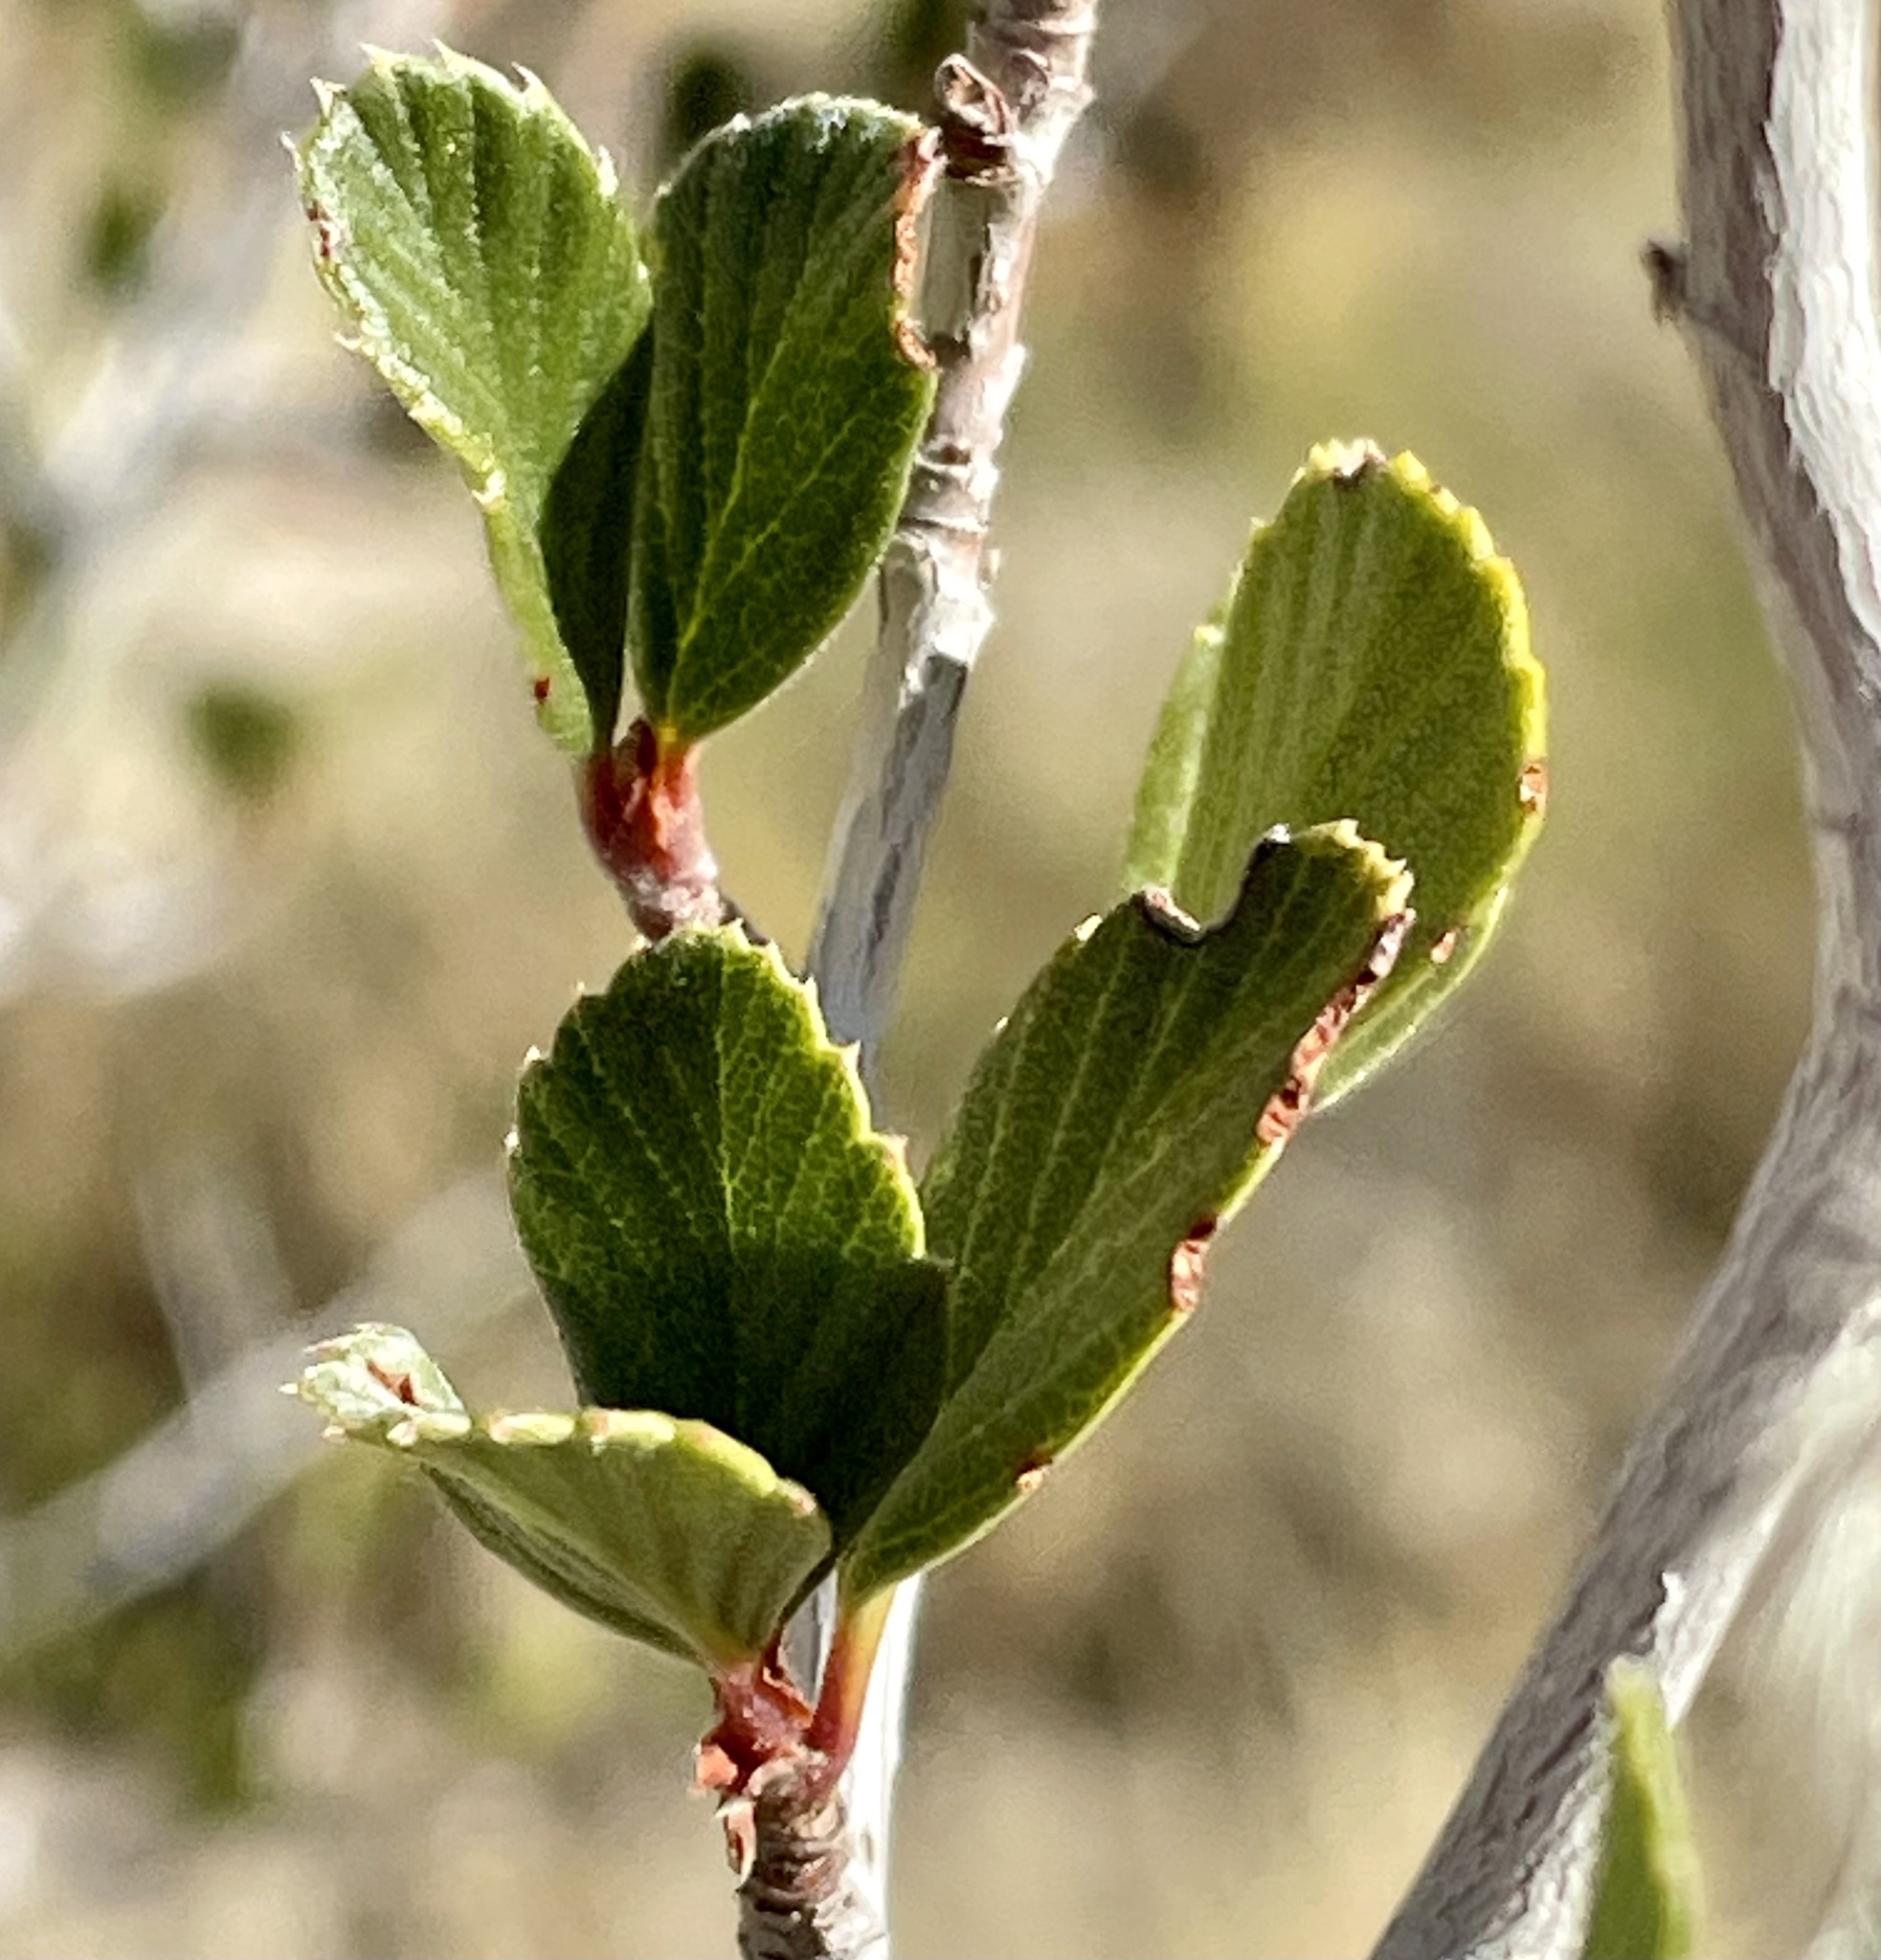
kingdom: Plantae
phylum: Tracheophyta
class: Magnoliopsida
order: Rosales
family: Rosaceae
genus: Cercocarpus
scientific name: Cercocarpus betuloides
